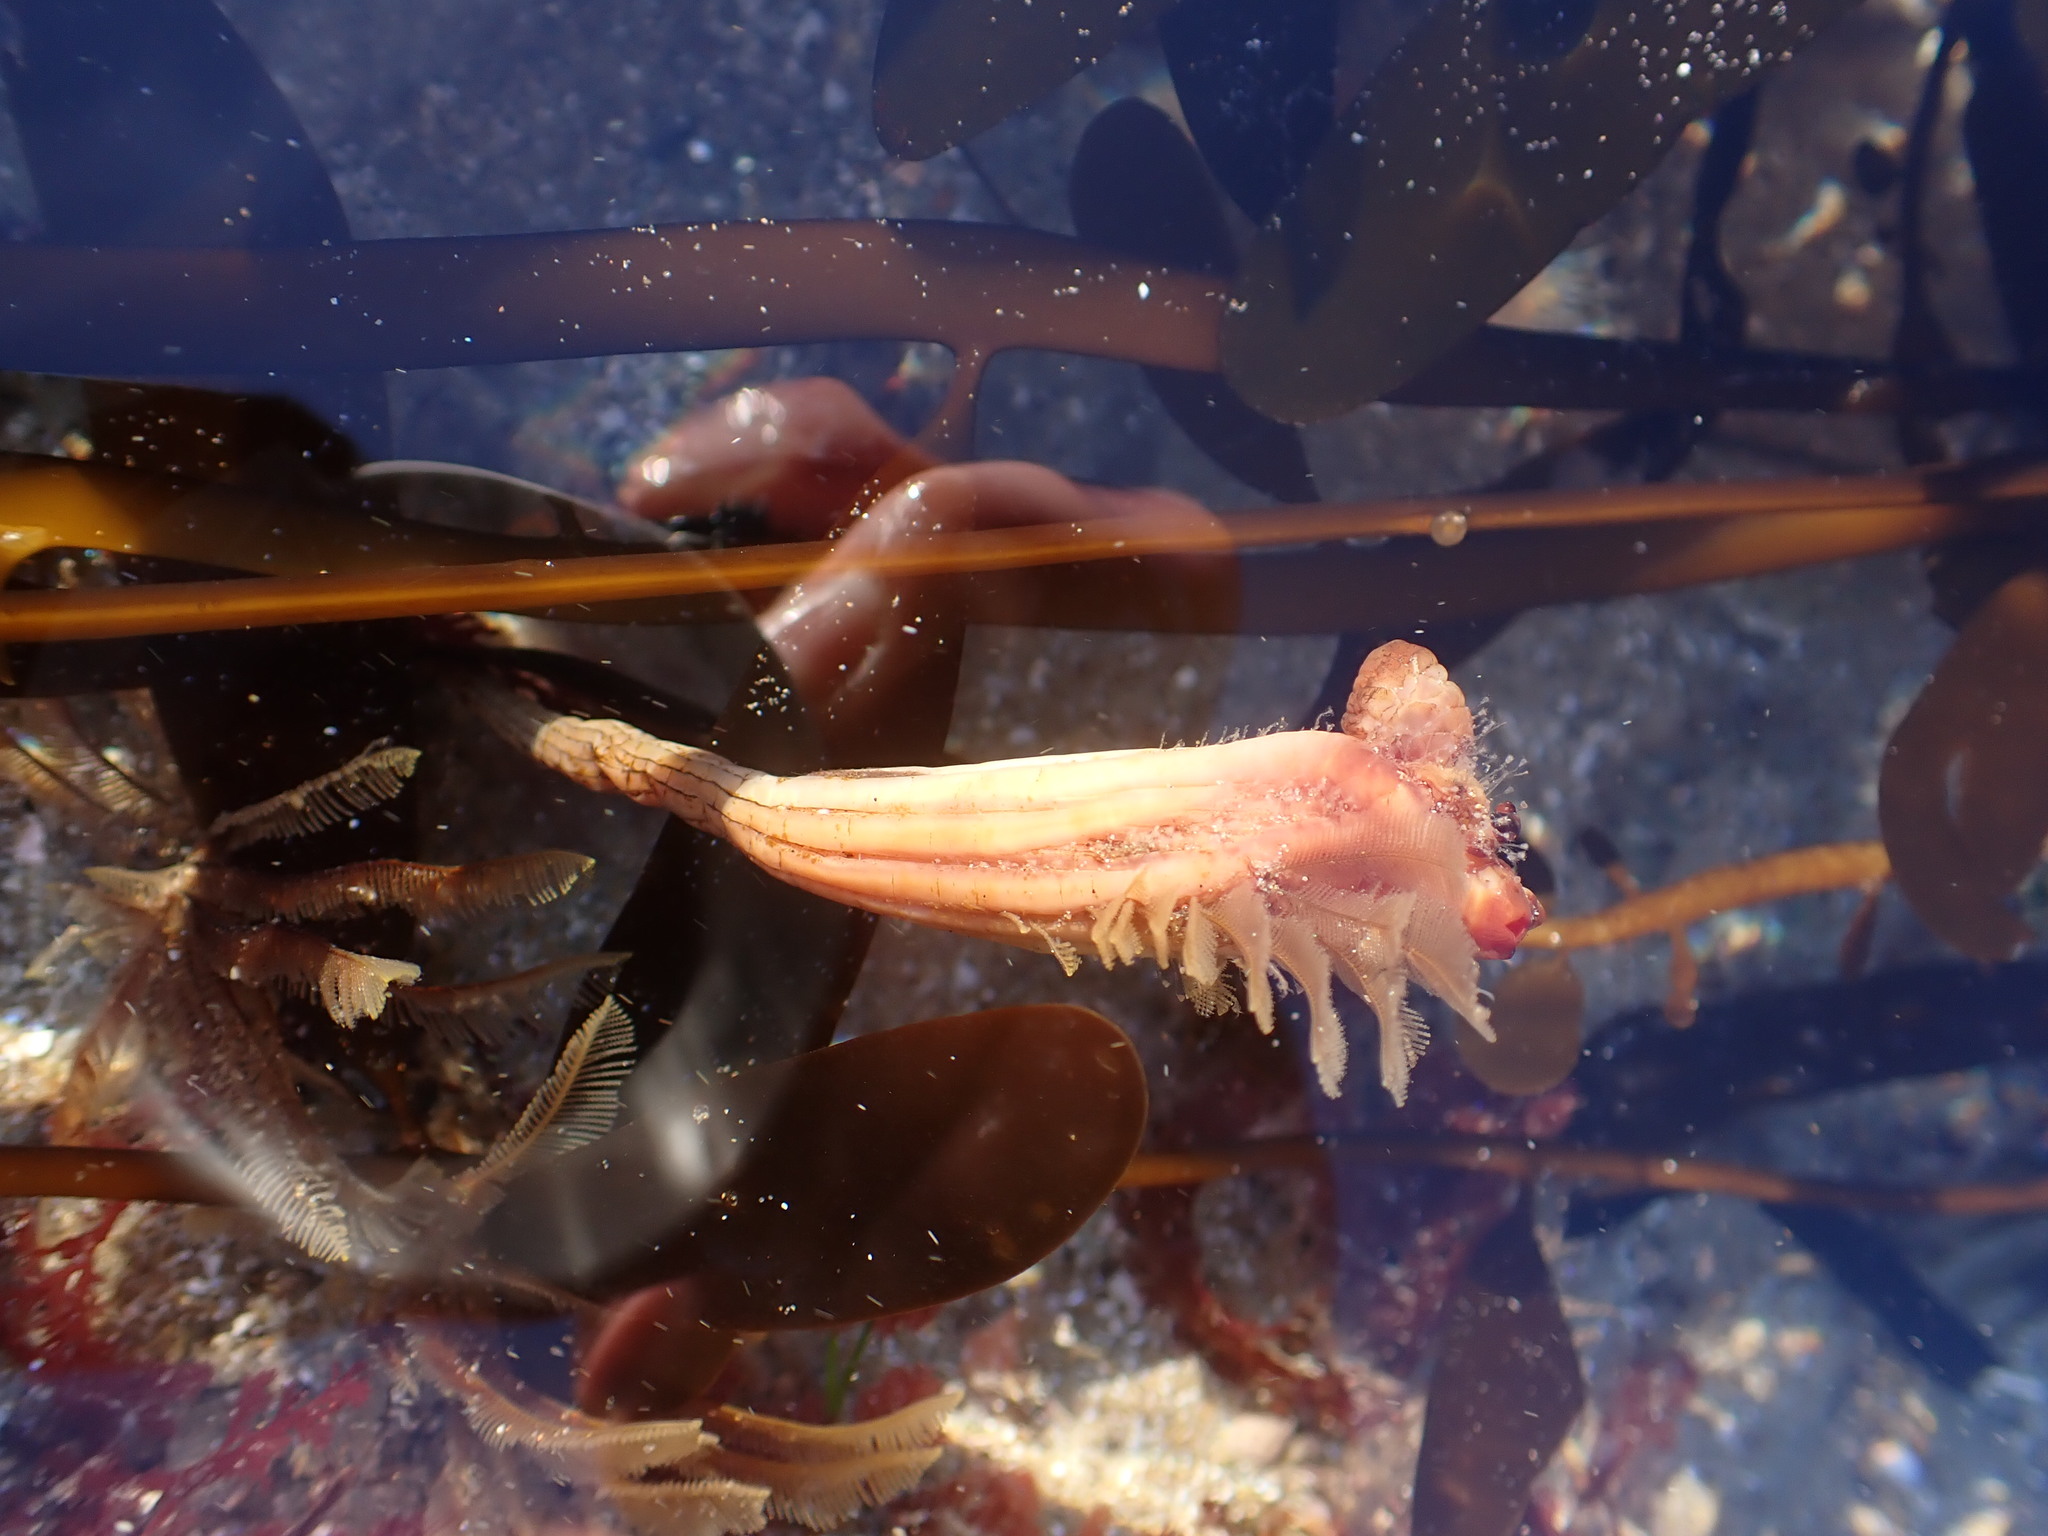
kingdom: Animalia
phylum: Chordata
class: Ascidiacea
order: Stolidobranchia
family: Styelidae
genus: Styela
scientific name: Styela montereyensis
